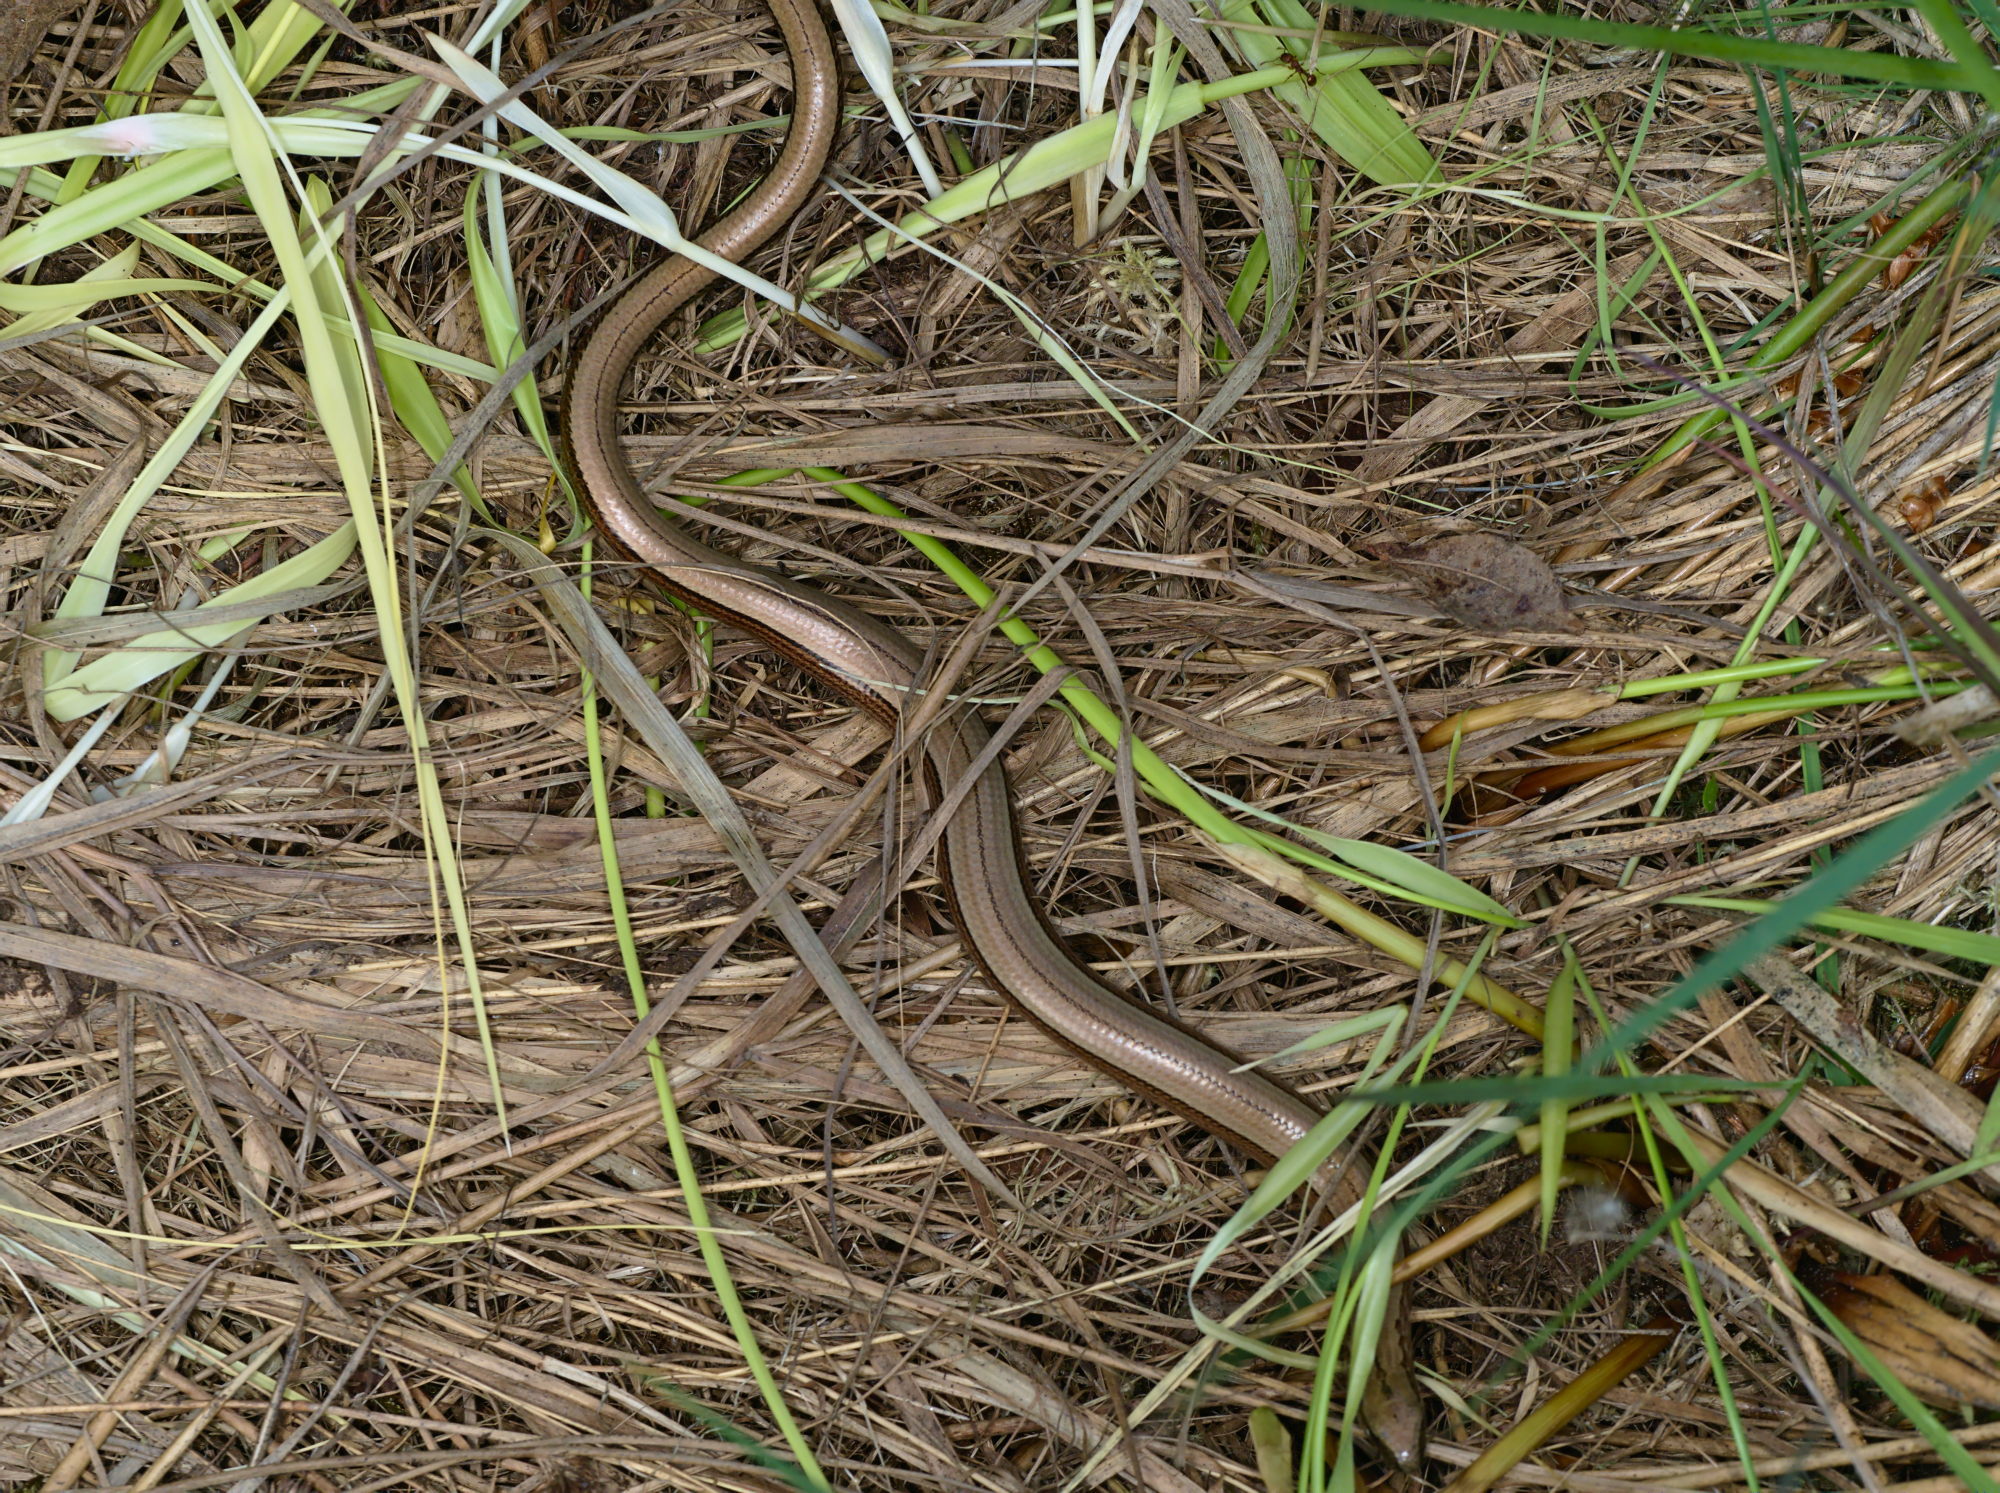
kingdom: Animalia
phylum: Chordata
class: Squamata
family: Anguidae
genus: Anguis
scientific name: Anguis fragilis
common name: Slow worm
